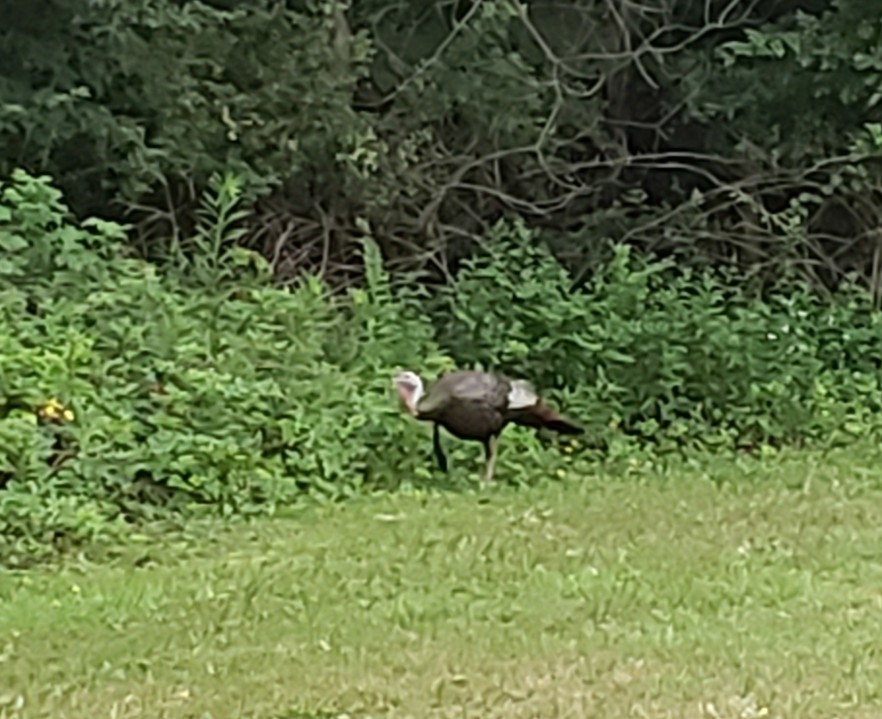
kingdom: Animalia
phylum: Chordata
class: Aves
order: Galliformes
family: Phasianidae
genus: Meleagris
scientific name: Meleagris gallopavo
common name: Wild turkey
